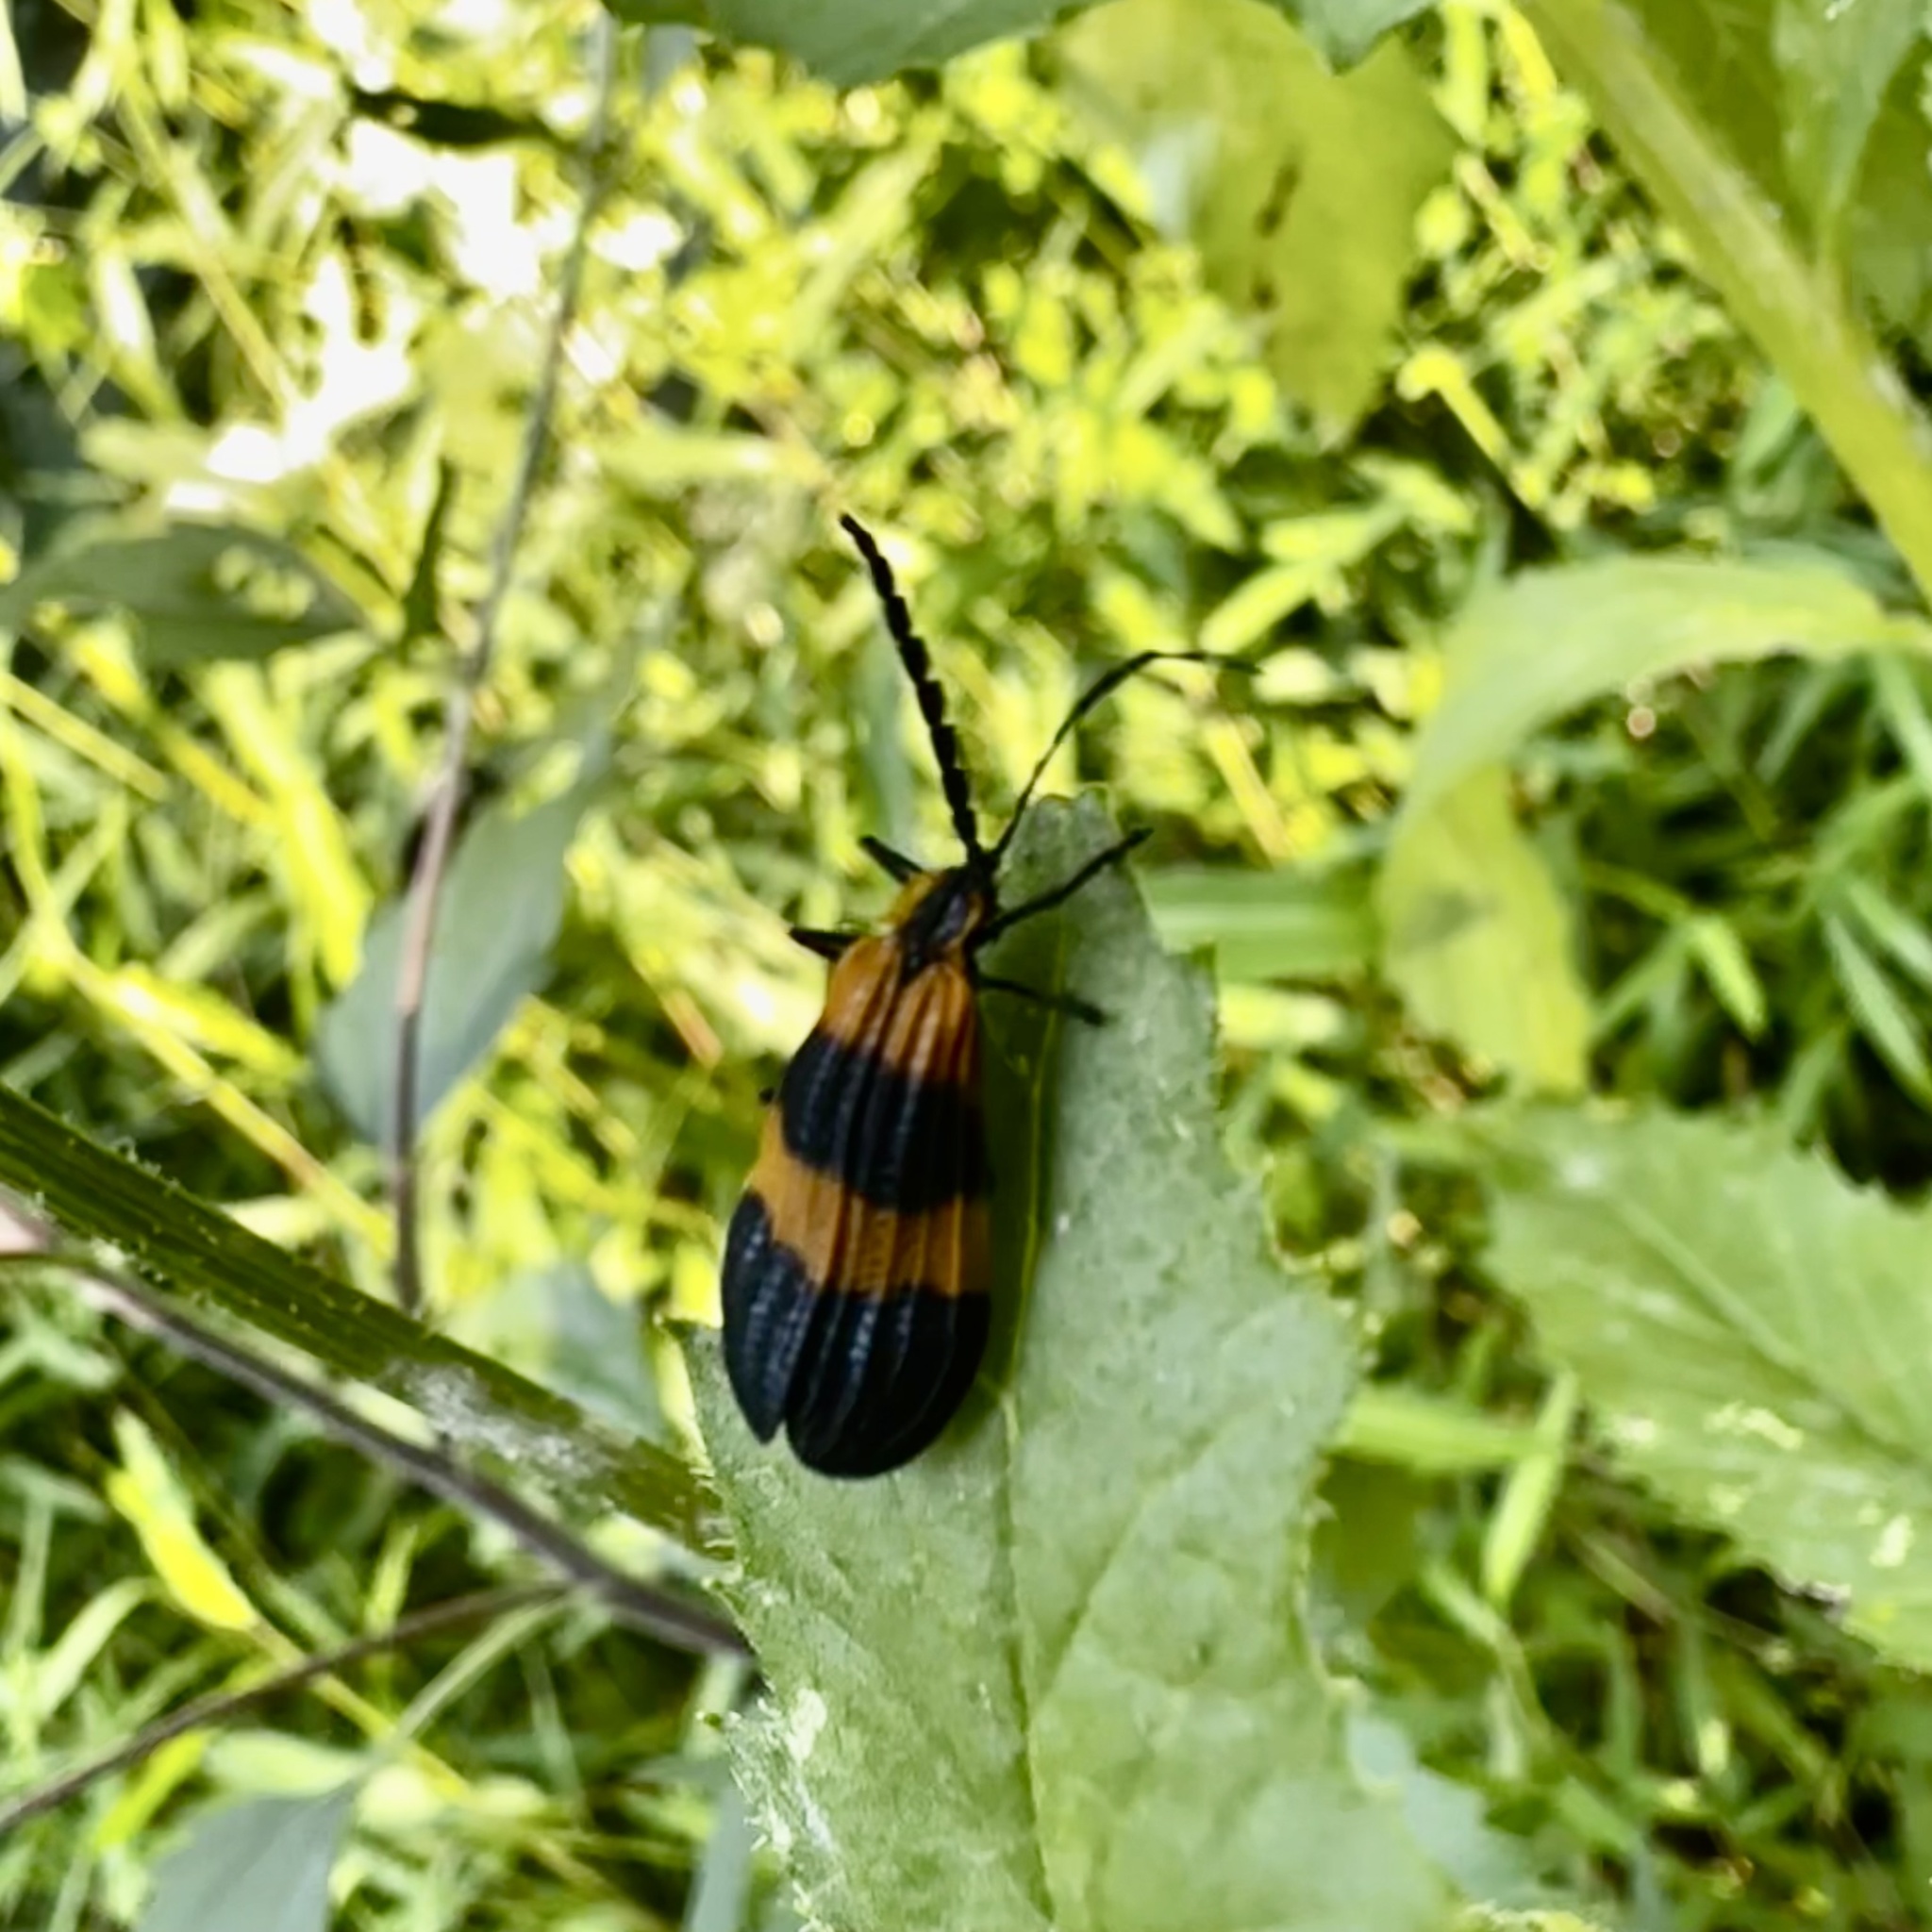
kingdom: Animalia
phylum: Arthropoda
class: Insecta
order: Coleoptera
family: Lycidae
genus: Calopteron
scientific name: Calopteron terminale
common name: End band net-winged beetle
